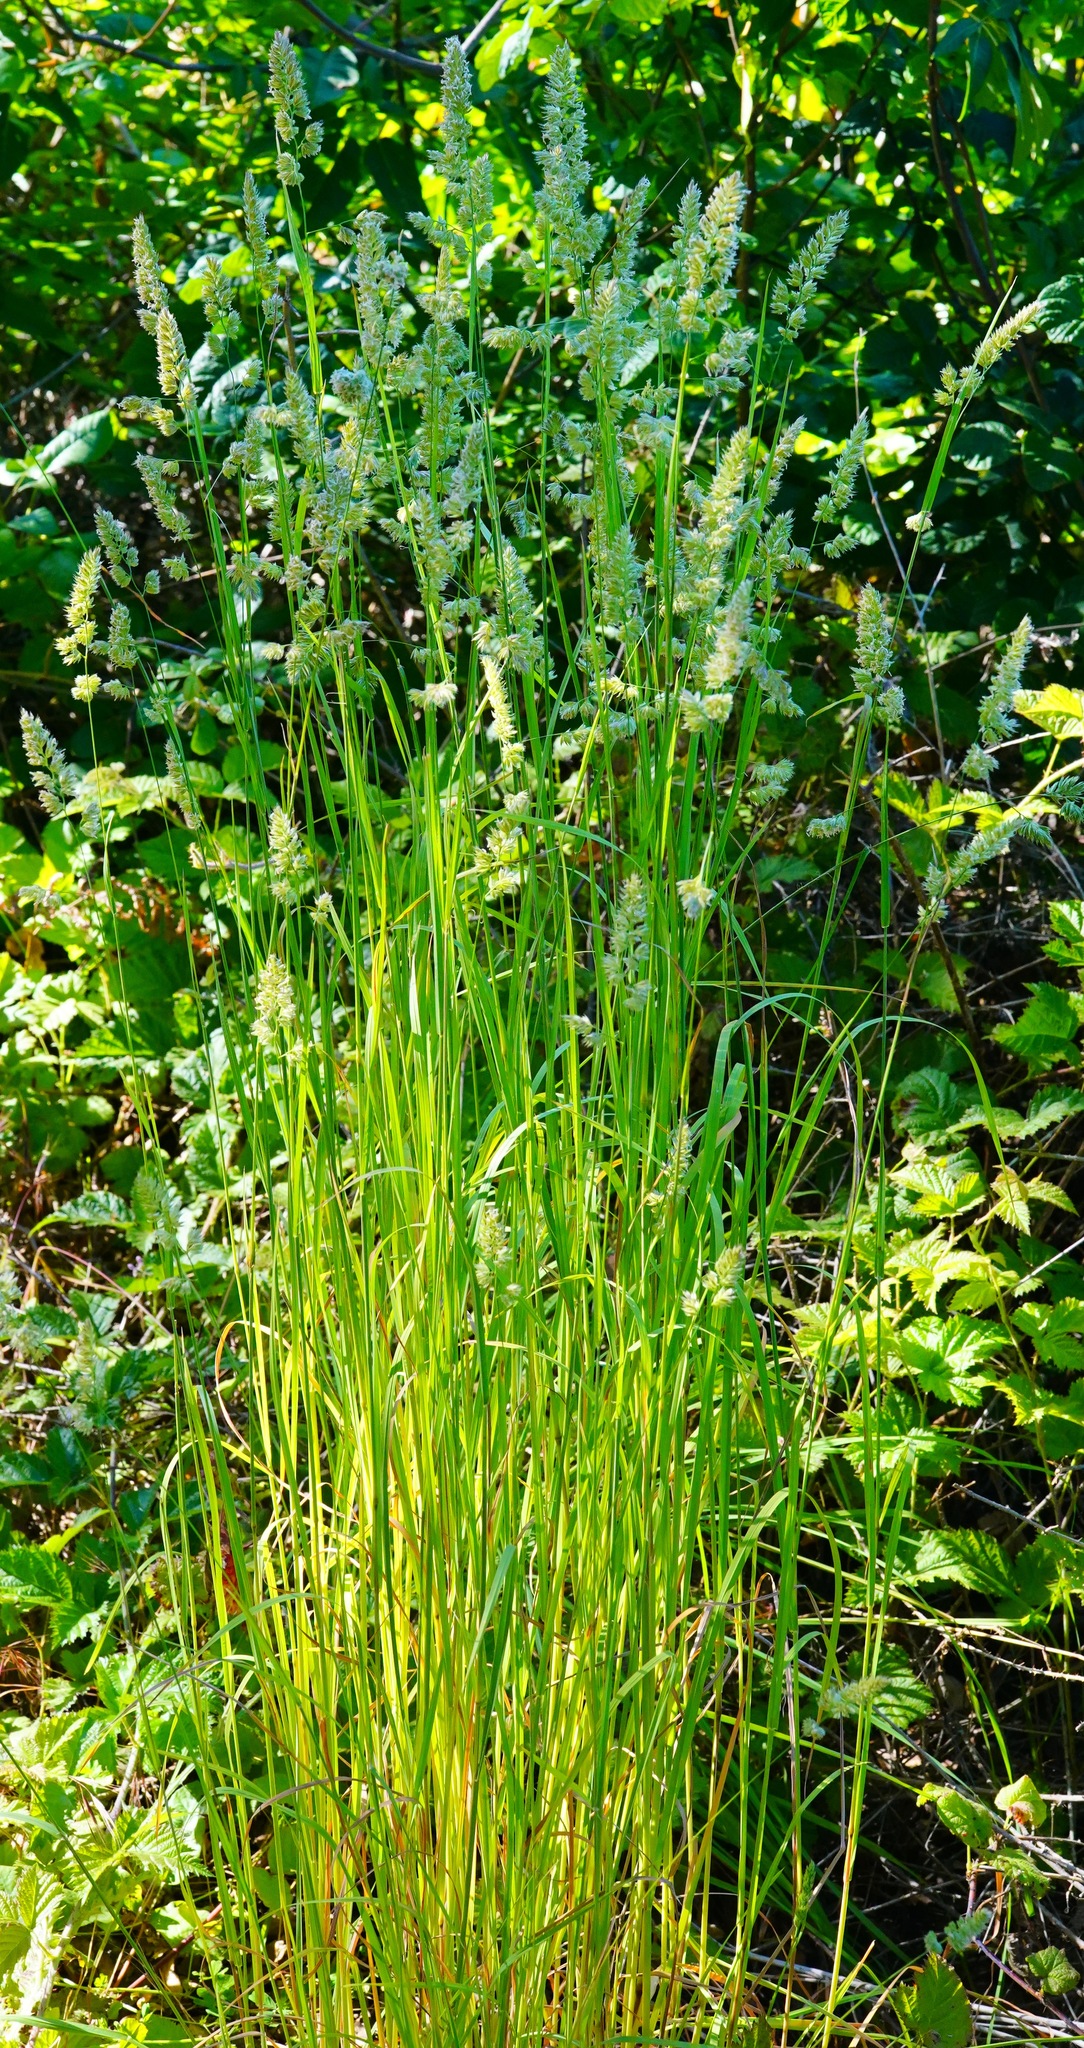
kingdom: Plantae
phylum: Tracheophyta
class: Liliopsida
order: Poales
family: Poaceae
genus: Dactylis
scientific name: Dactylis glomerata
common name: Orchardgrass
